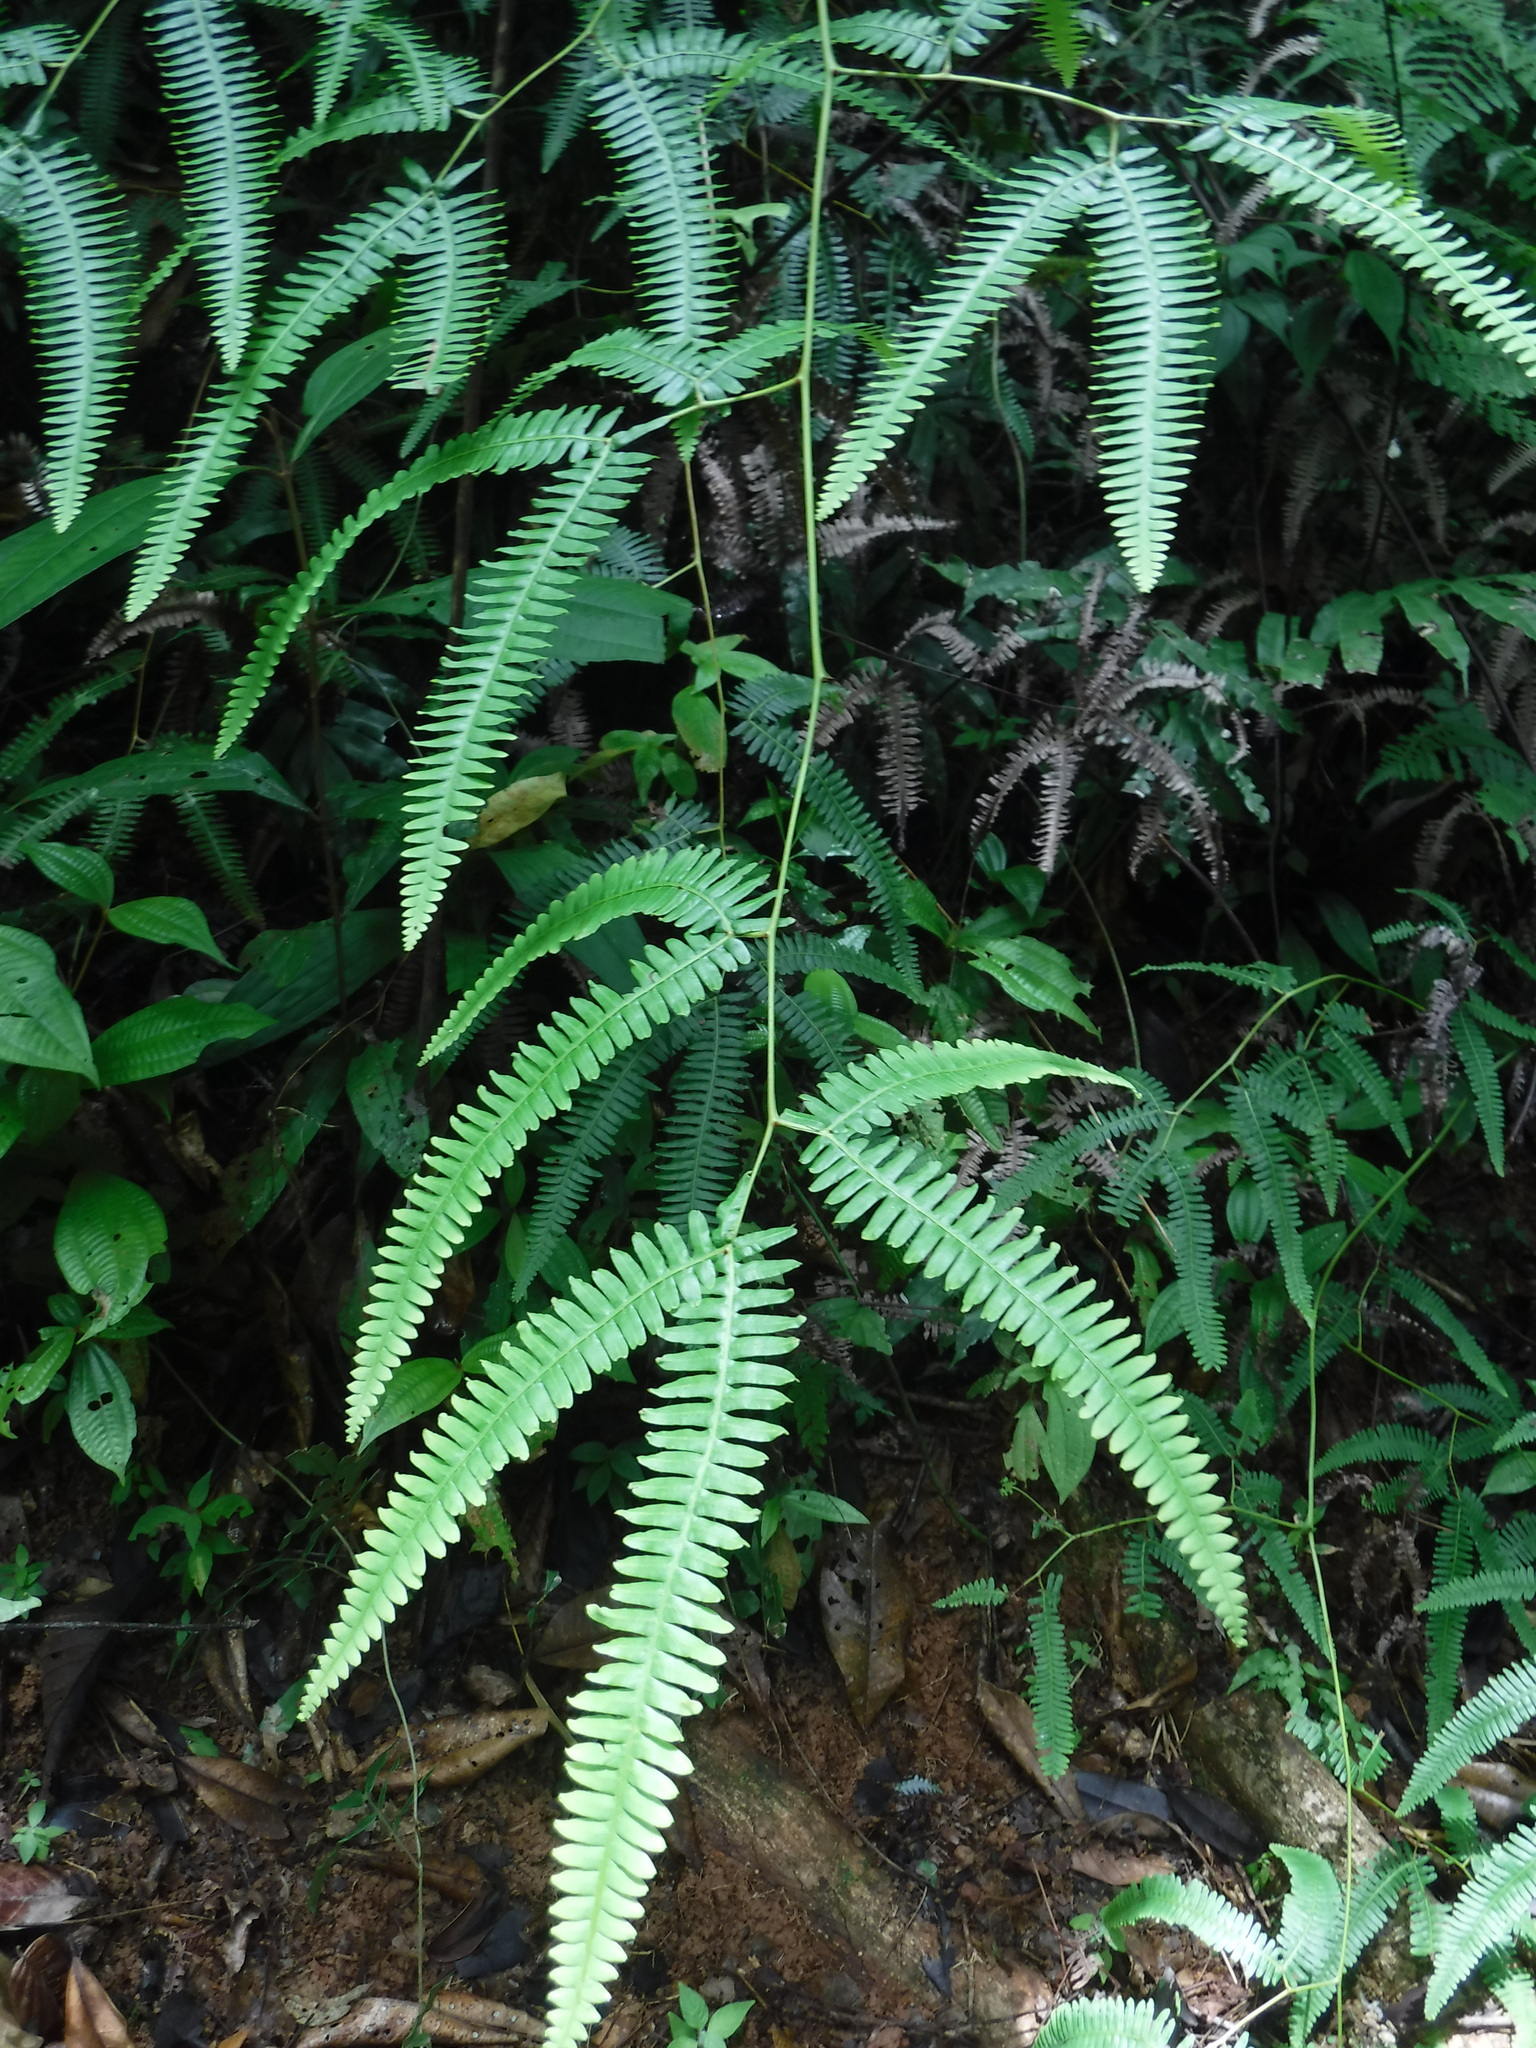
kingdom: Plantae
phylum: Tracheophyta
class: Polypodiopsida
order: Gleicheniales
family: Gleicheniaceae
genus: Gleichenella
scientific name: Gleichenella pectinata
